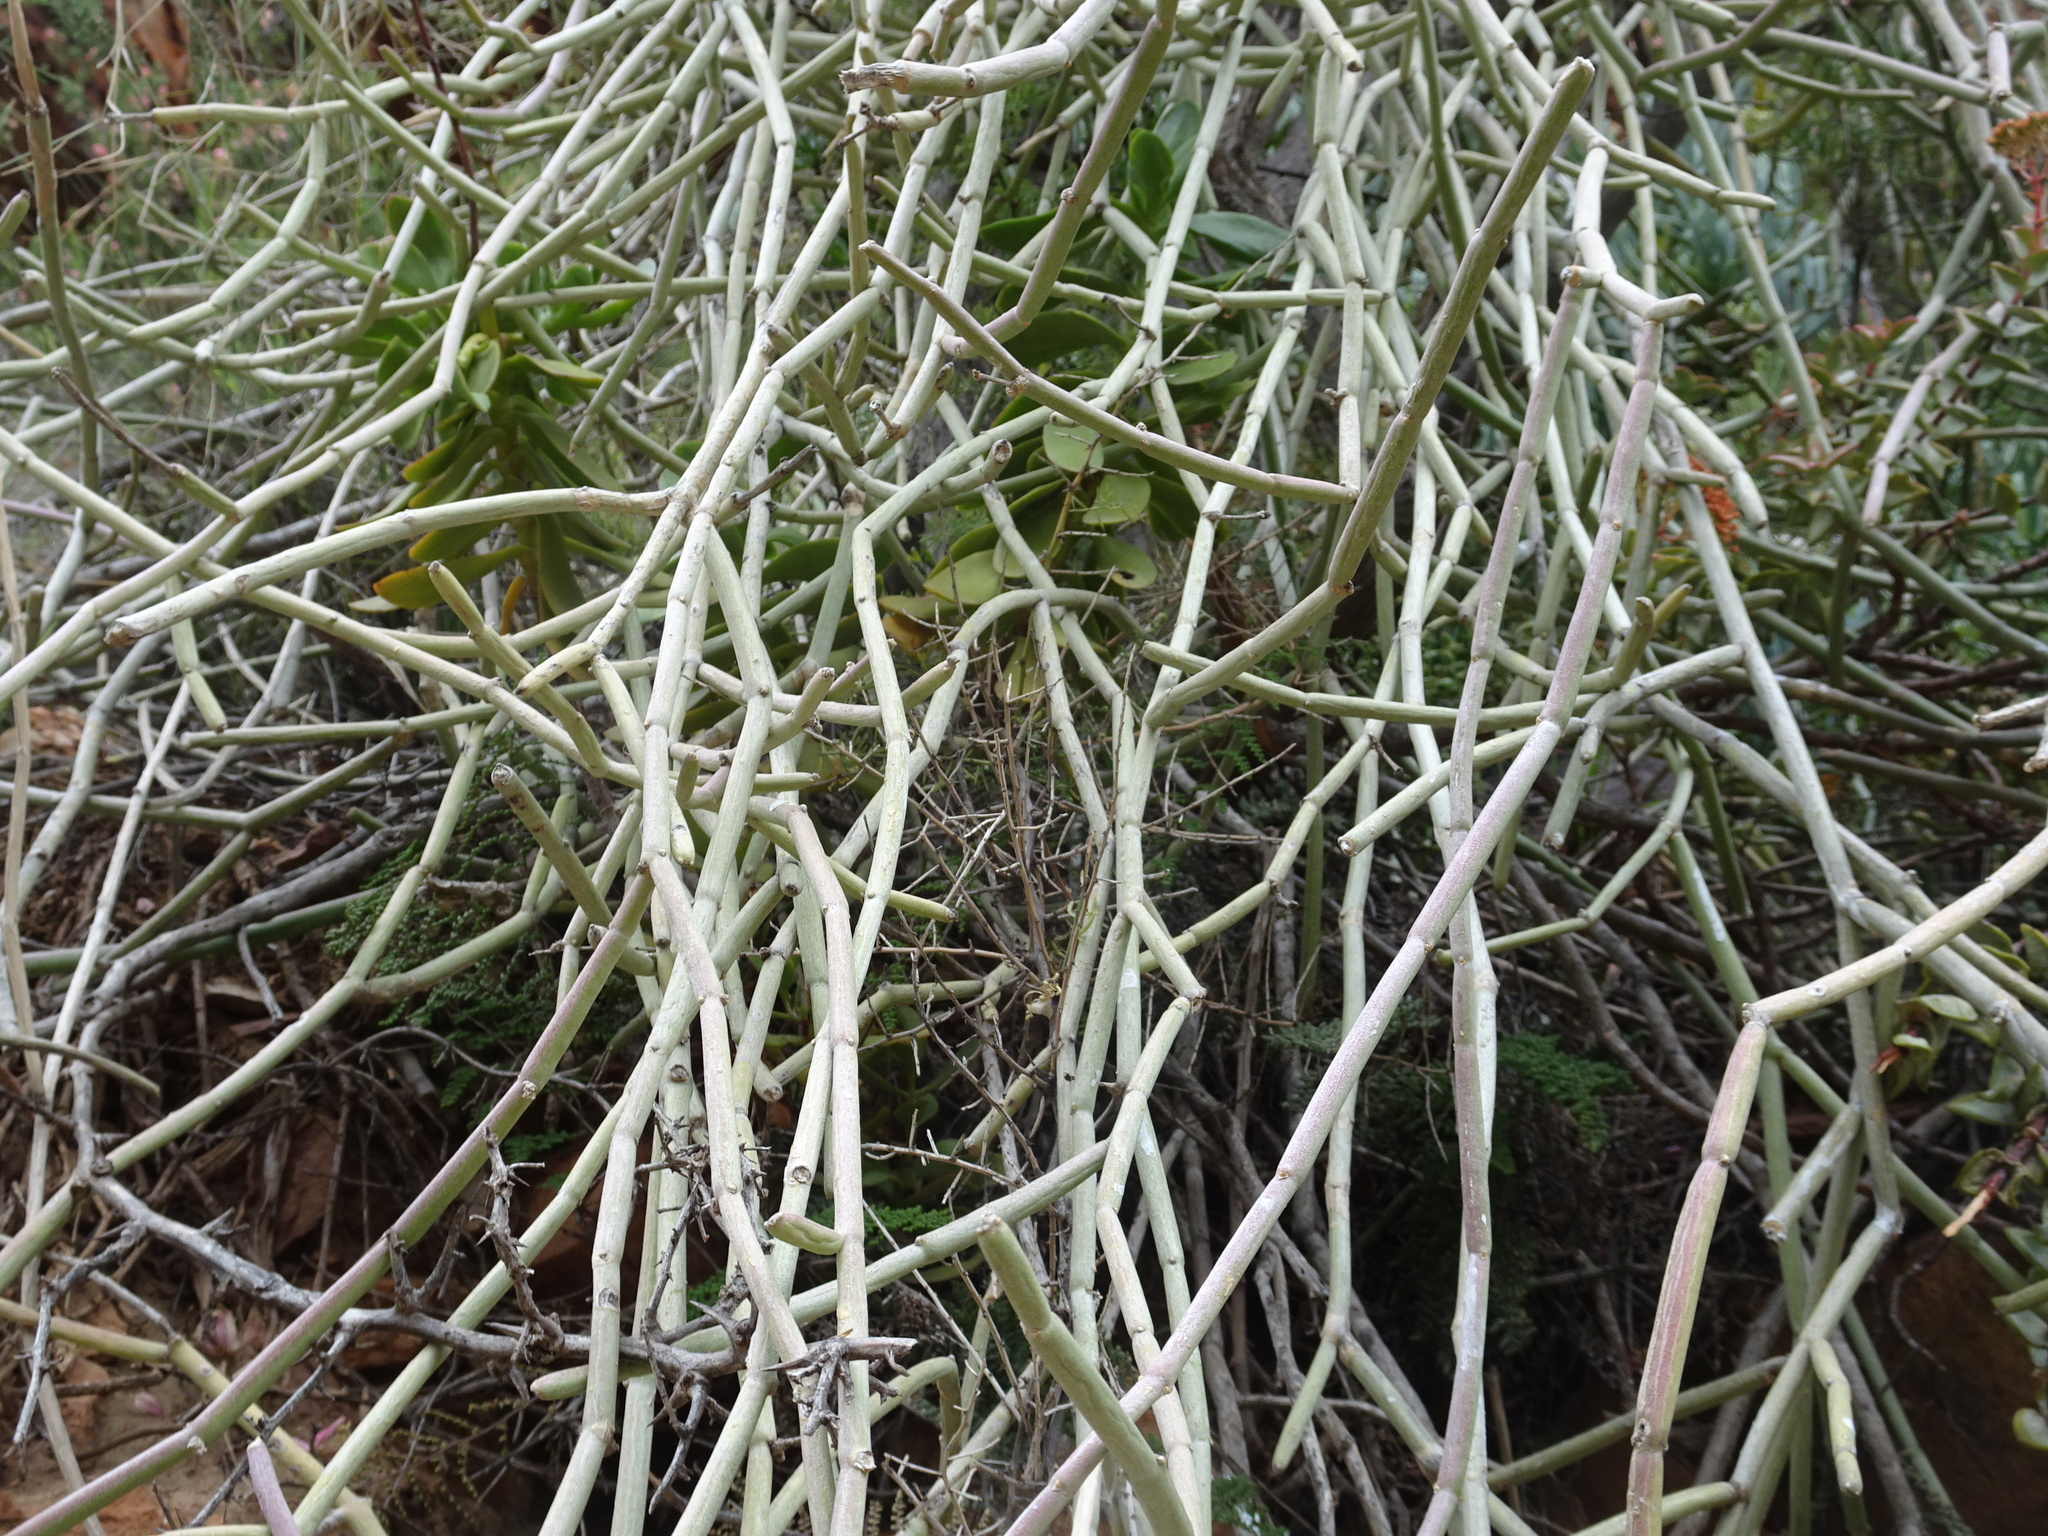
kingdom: Plantae
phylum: Tracheophyta
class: Magnoliopsida
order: Gentianales
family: Apocynaceae
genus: Cynanchum
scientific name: Cynanchum viminale
